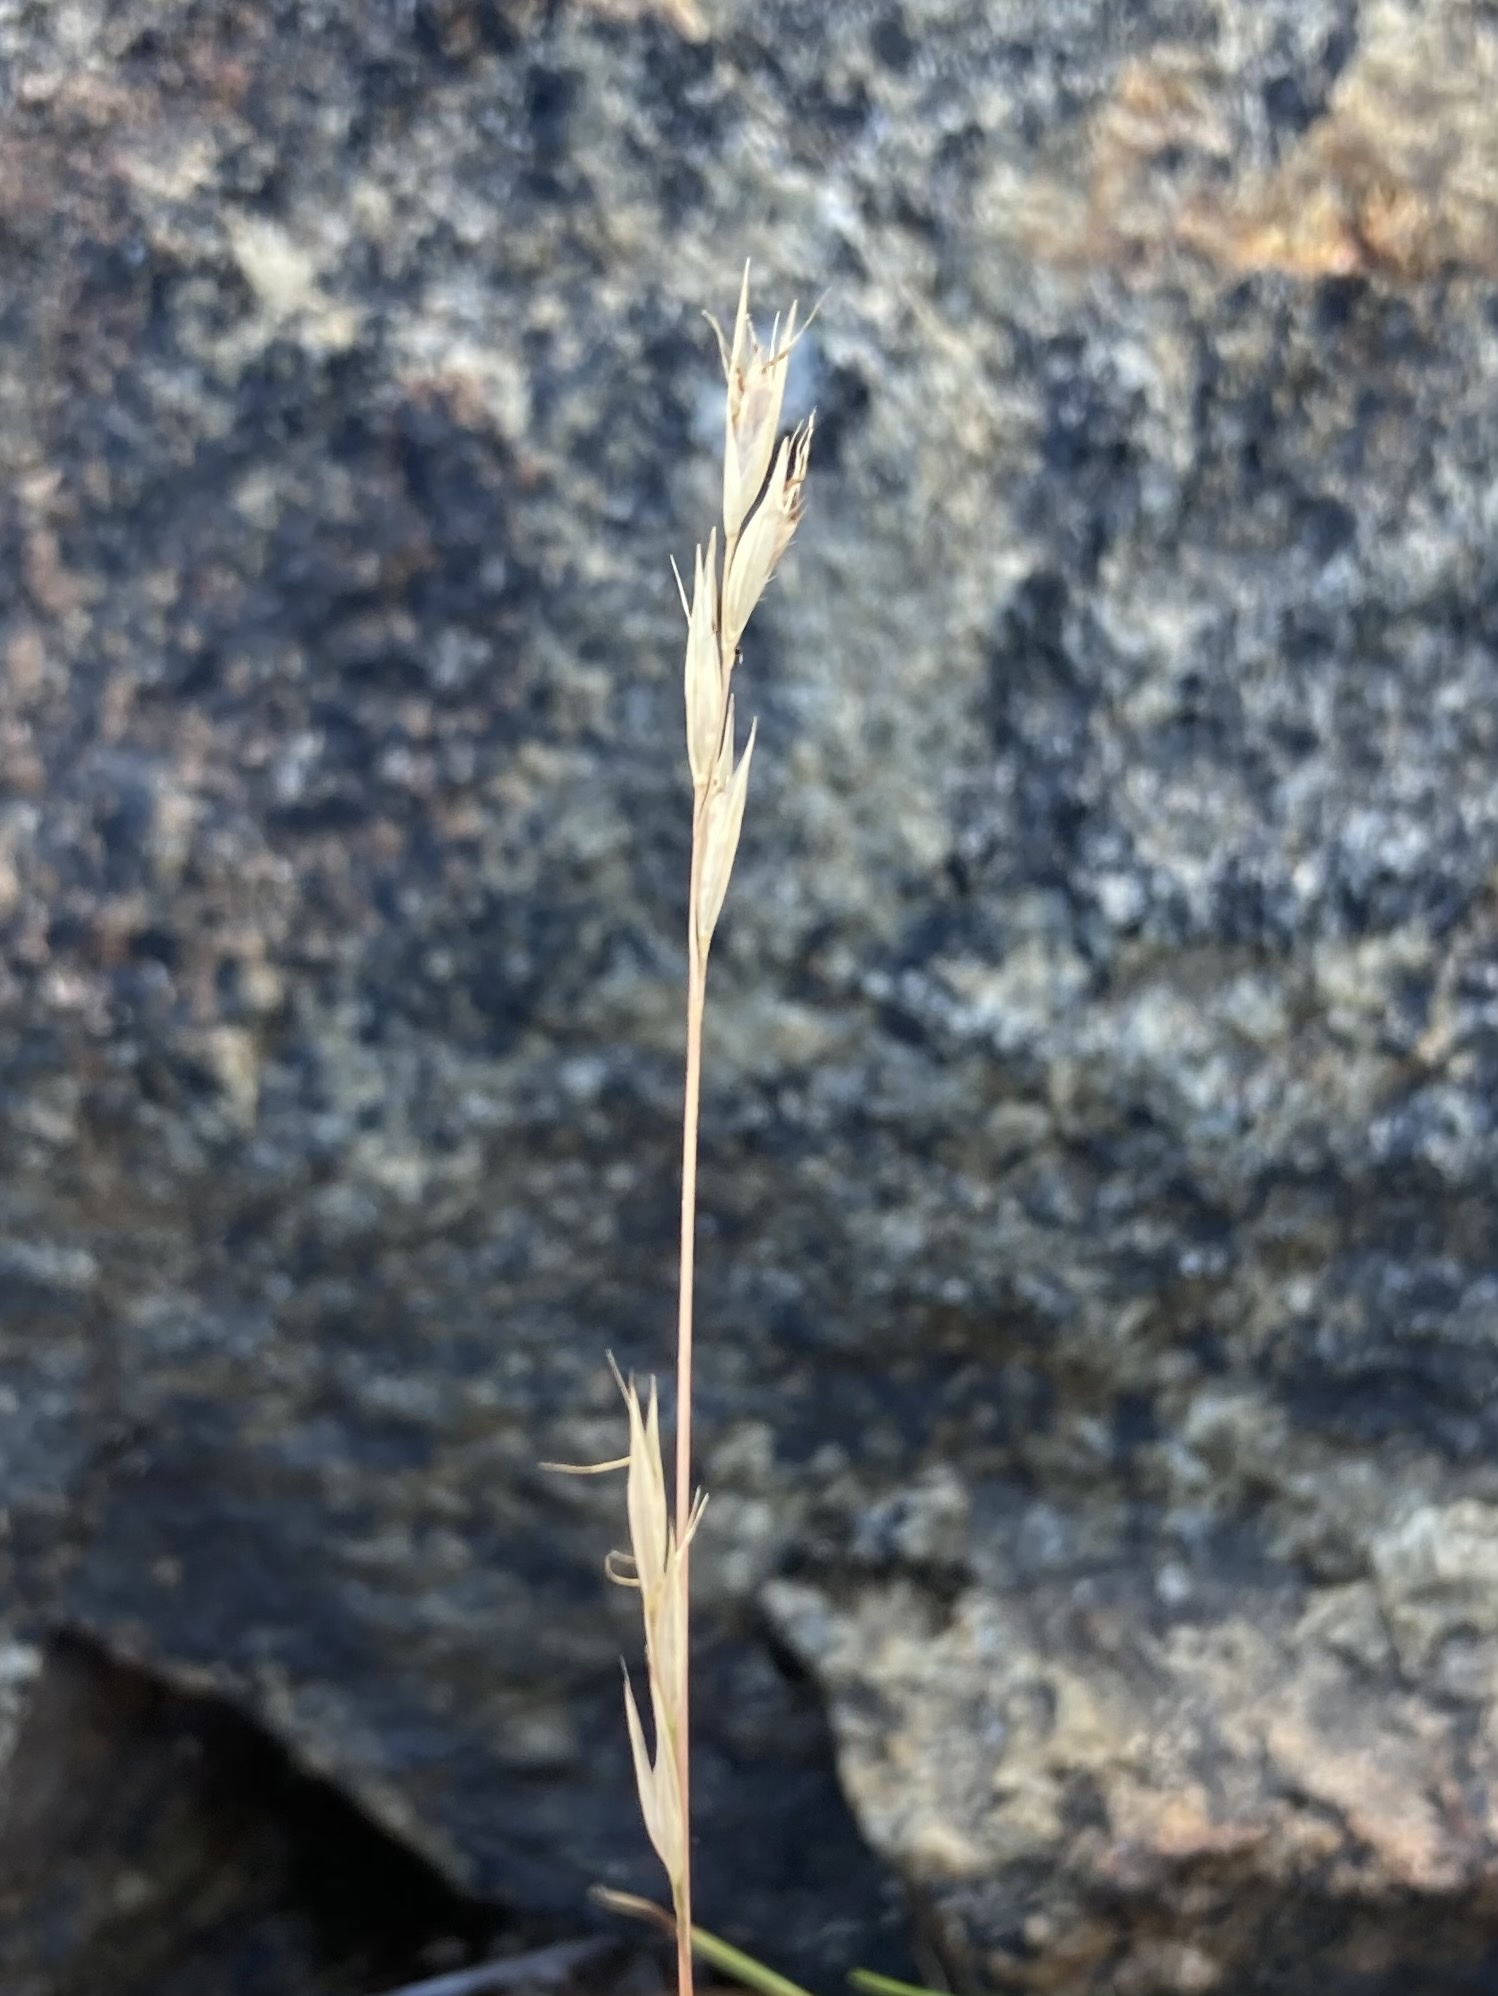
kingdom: Plantae
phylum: Tracheophyta
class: Liliopsida
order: Poales
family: Poaceae
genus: Danthonia
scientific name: Danthonia spicata
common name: Common wild oatgrass
